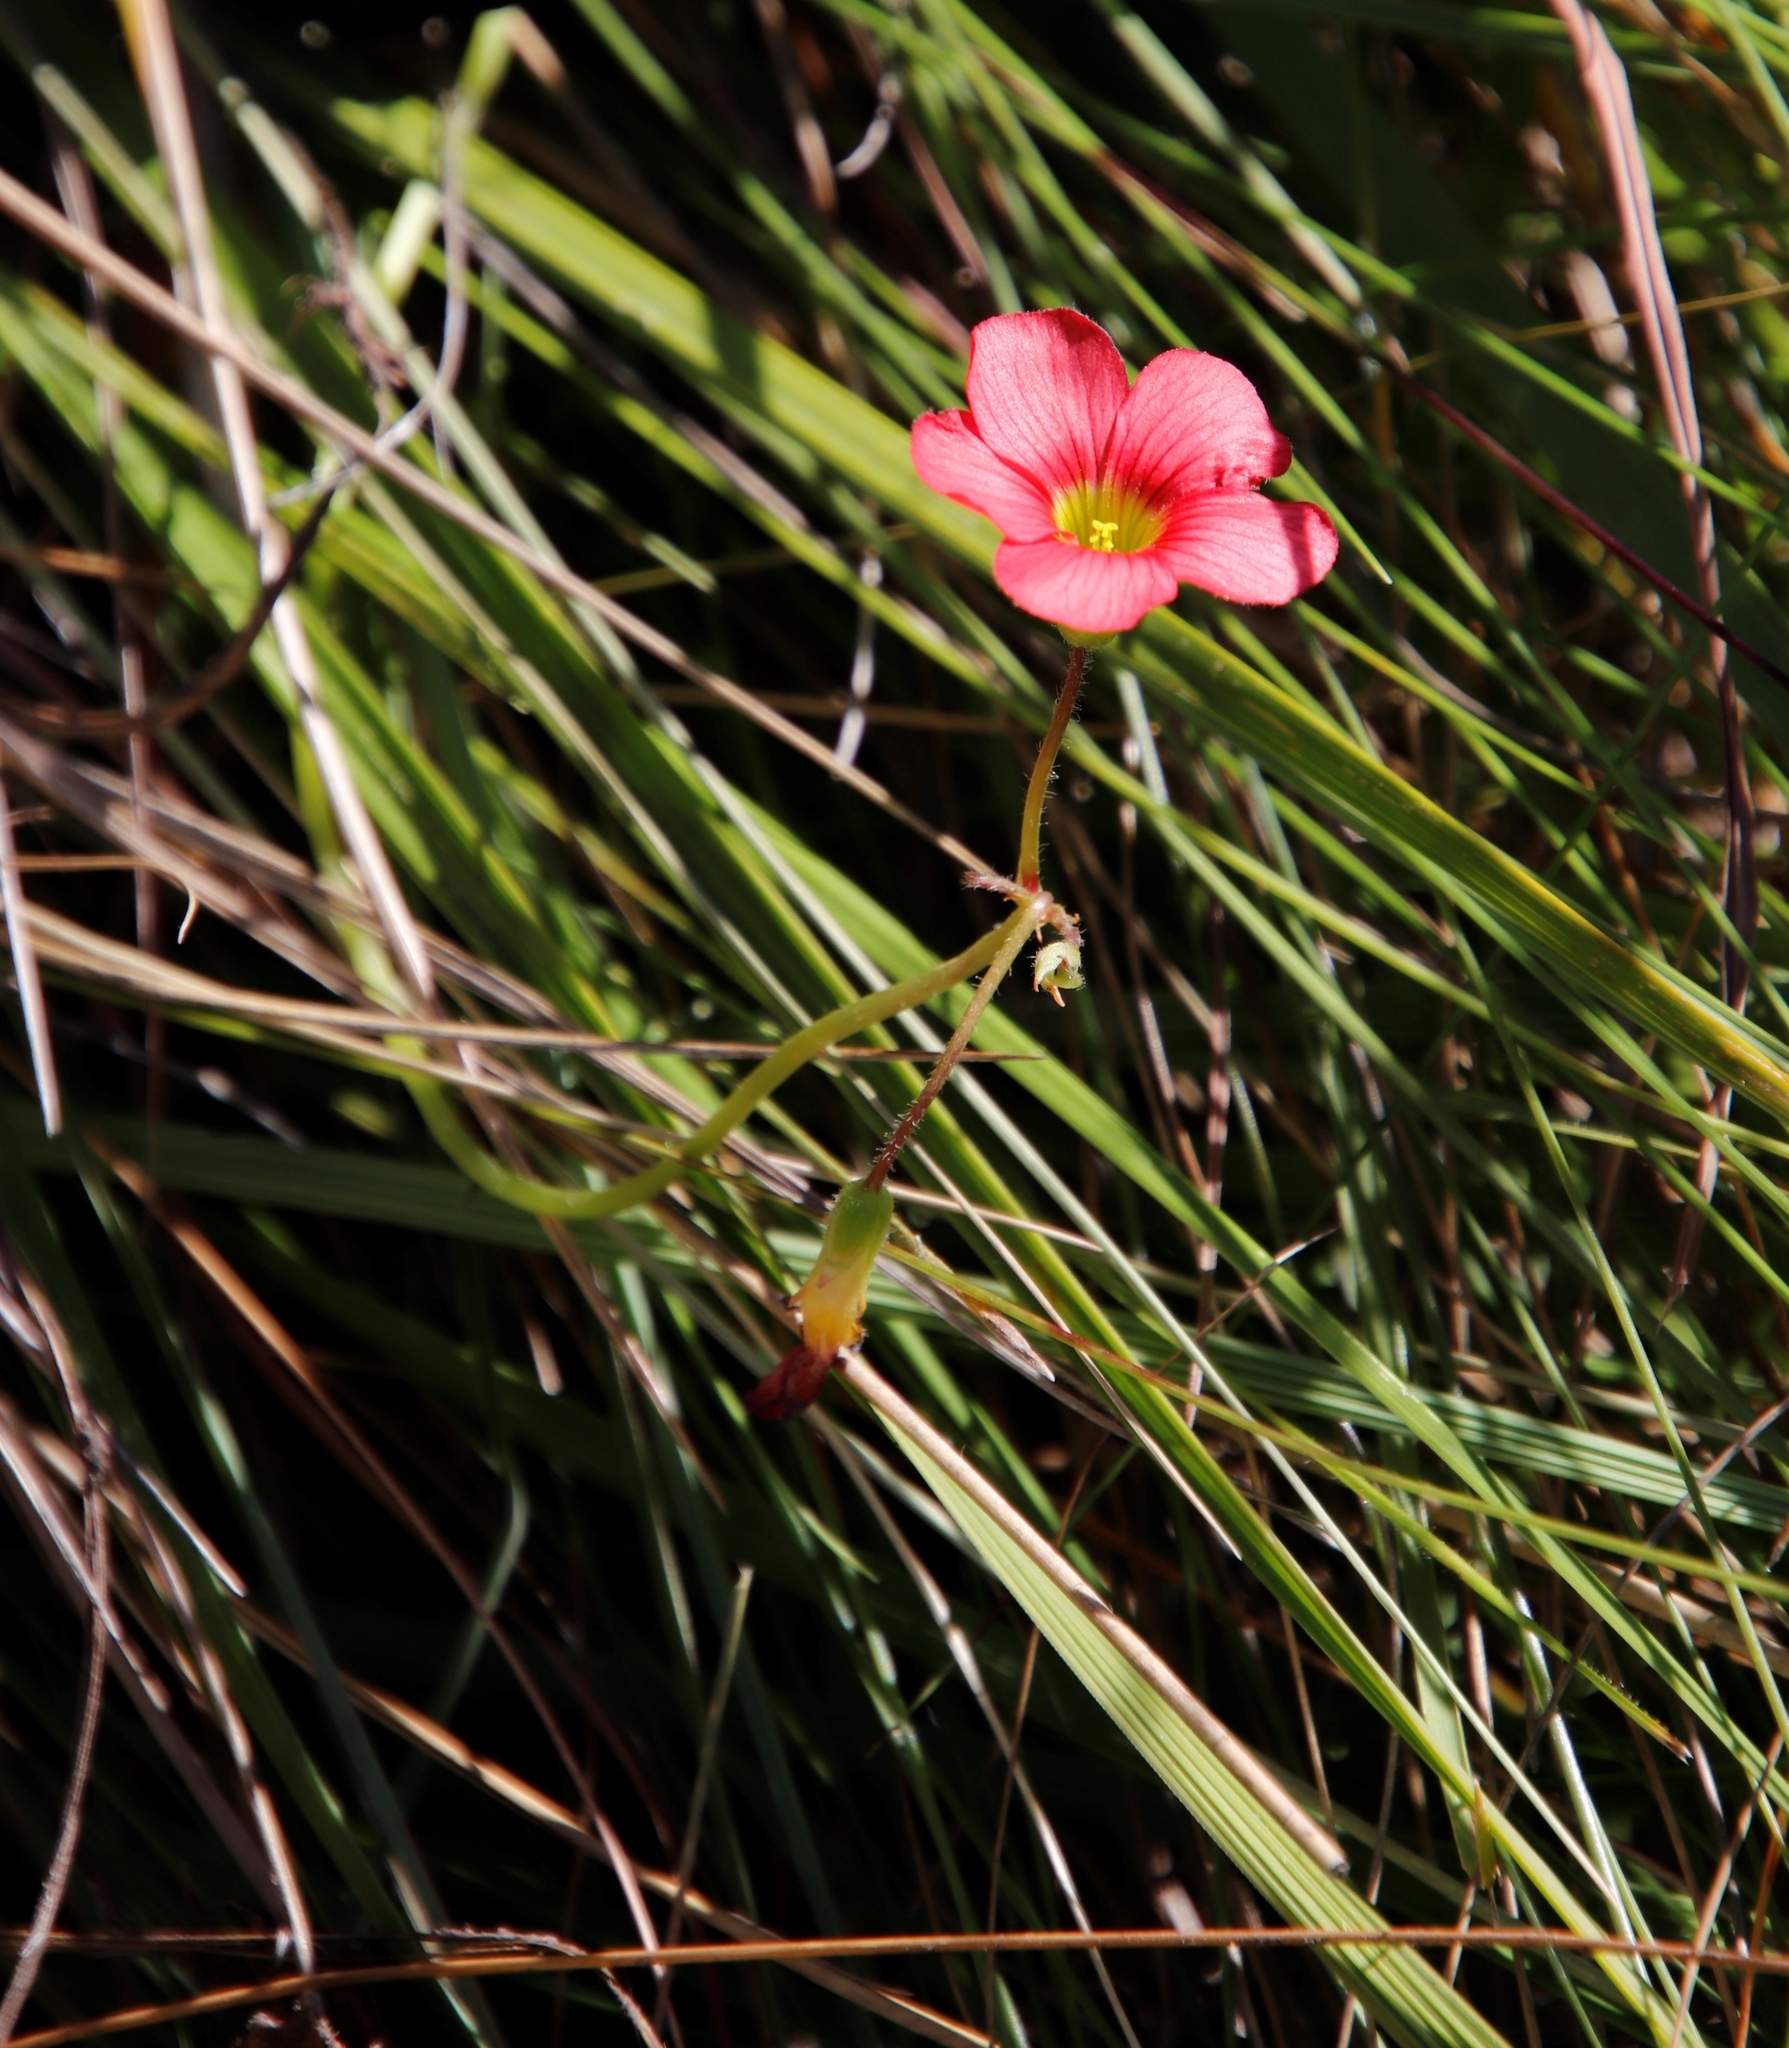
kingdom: Plantae
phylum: Tracheophyta
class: Magnoliopsida
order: Oxalidales
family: Oxalidaceae
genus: Oxalis
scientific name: Oxalis bowiei
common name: Bowie's wood-sorrel
